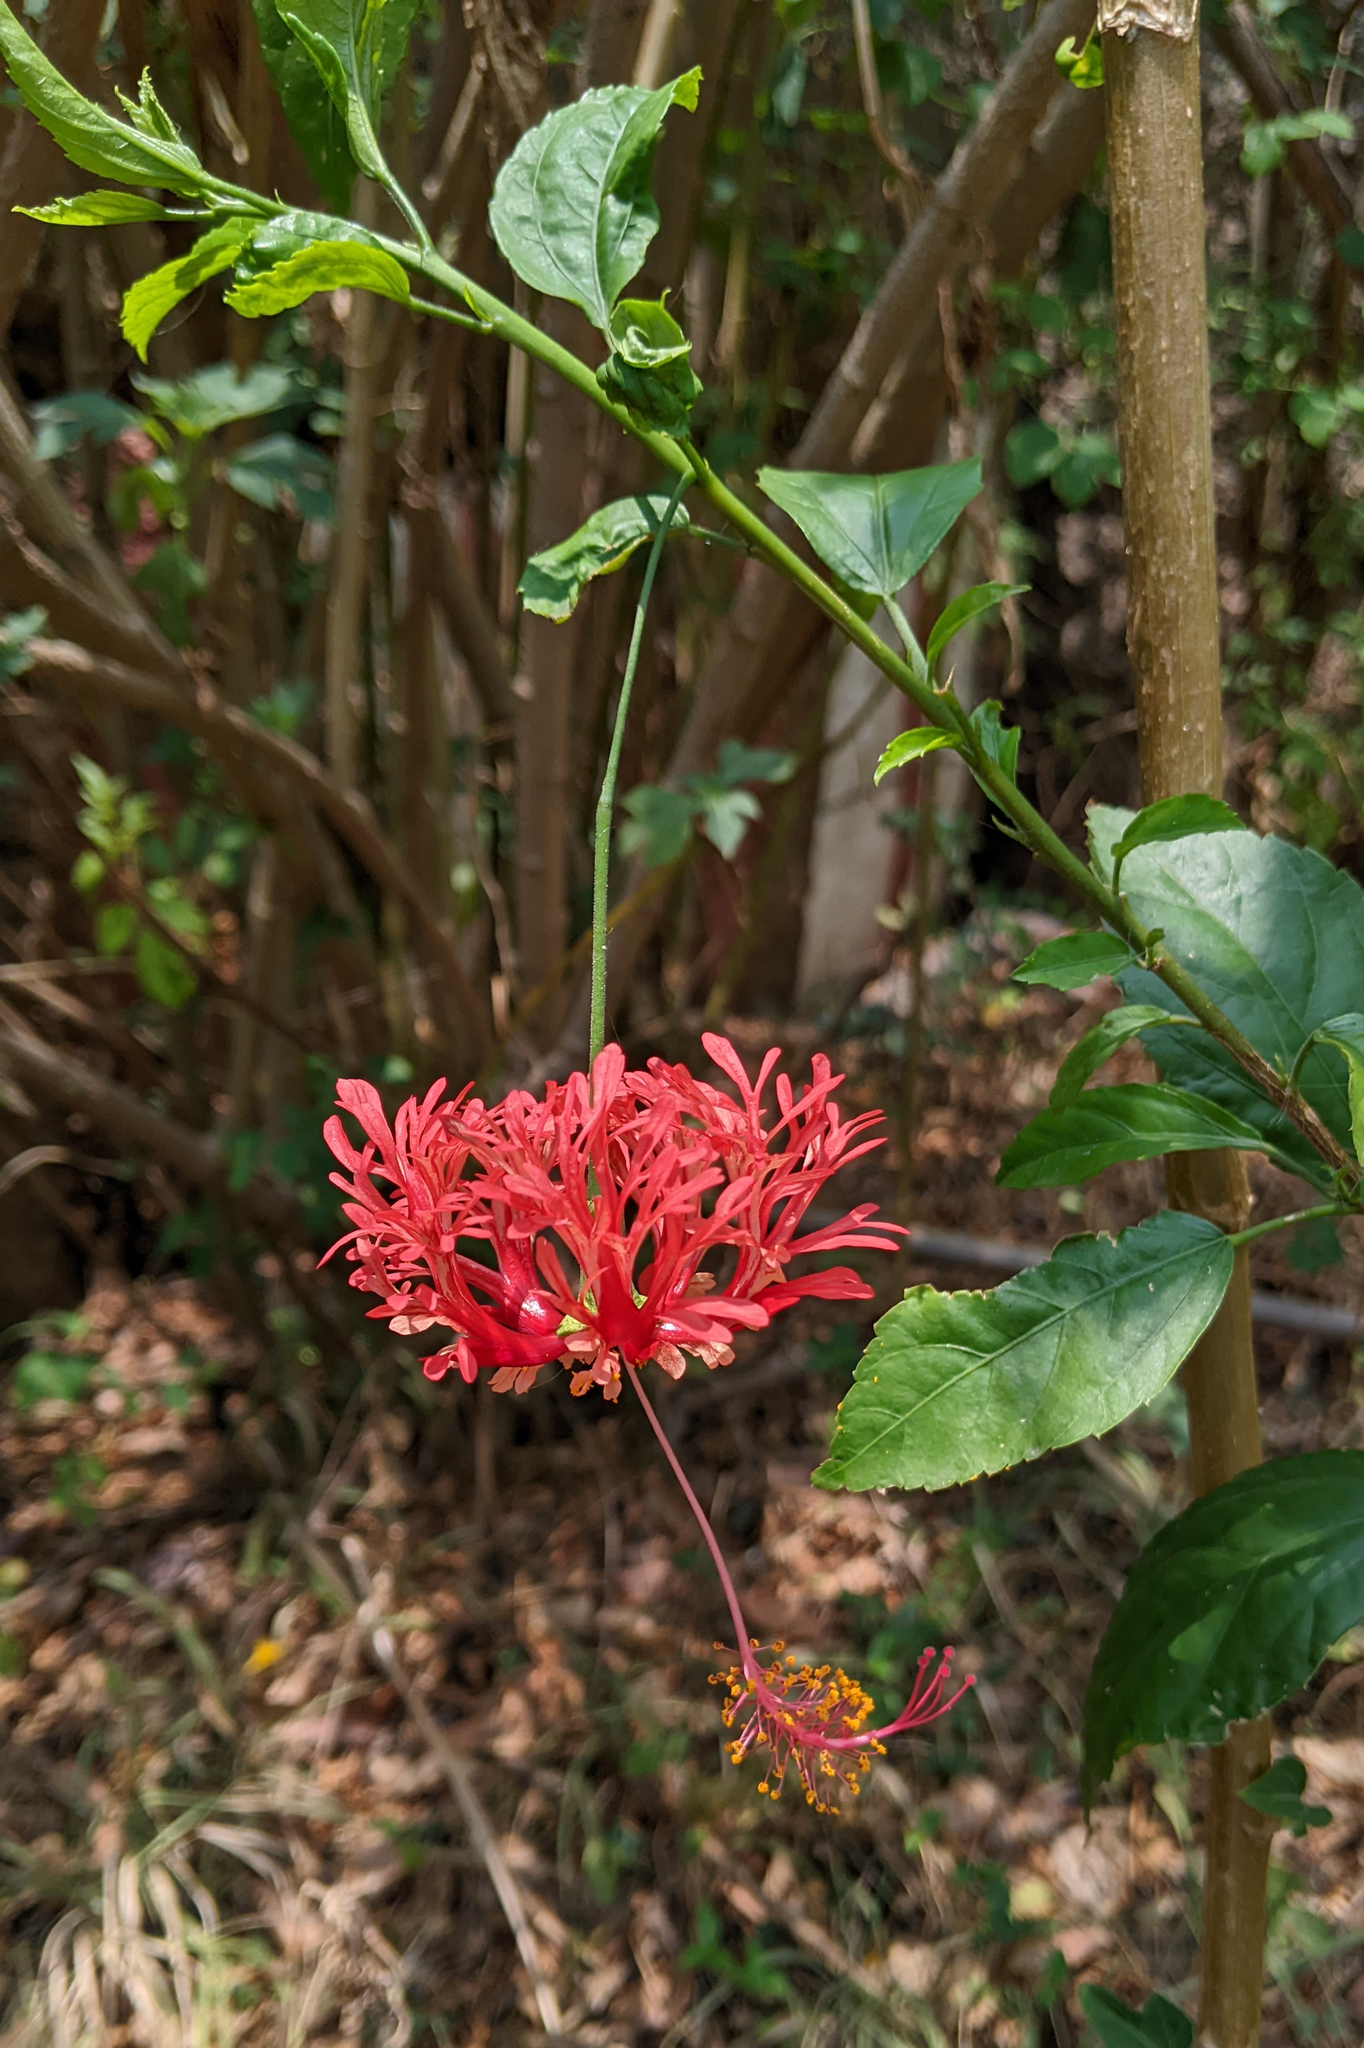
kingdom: Plantae
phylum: Tracheophyta
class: Magnoliopsida
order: Malvales
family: Malvaceae
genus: Hibiscus
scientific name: Hibiscus schizopetalus
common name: Fringed rosemallow
